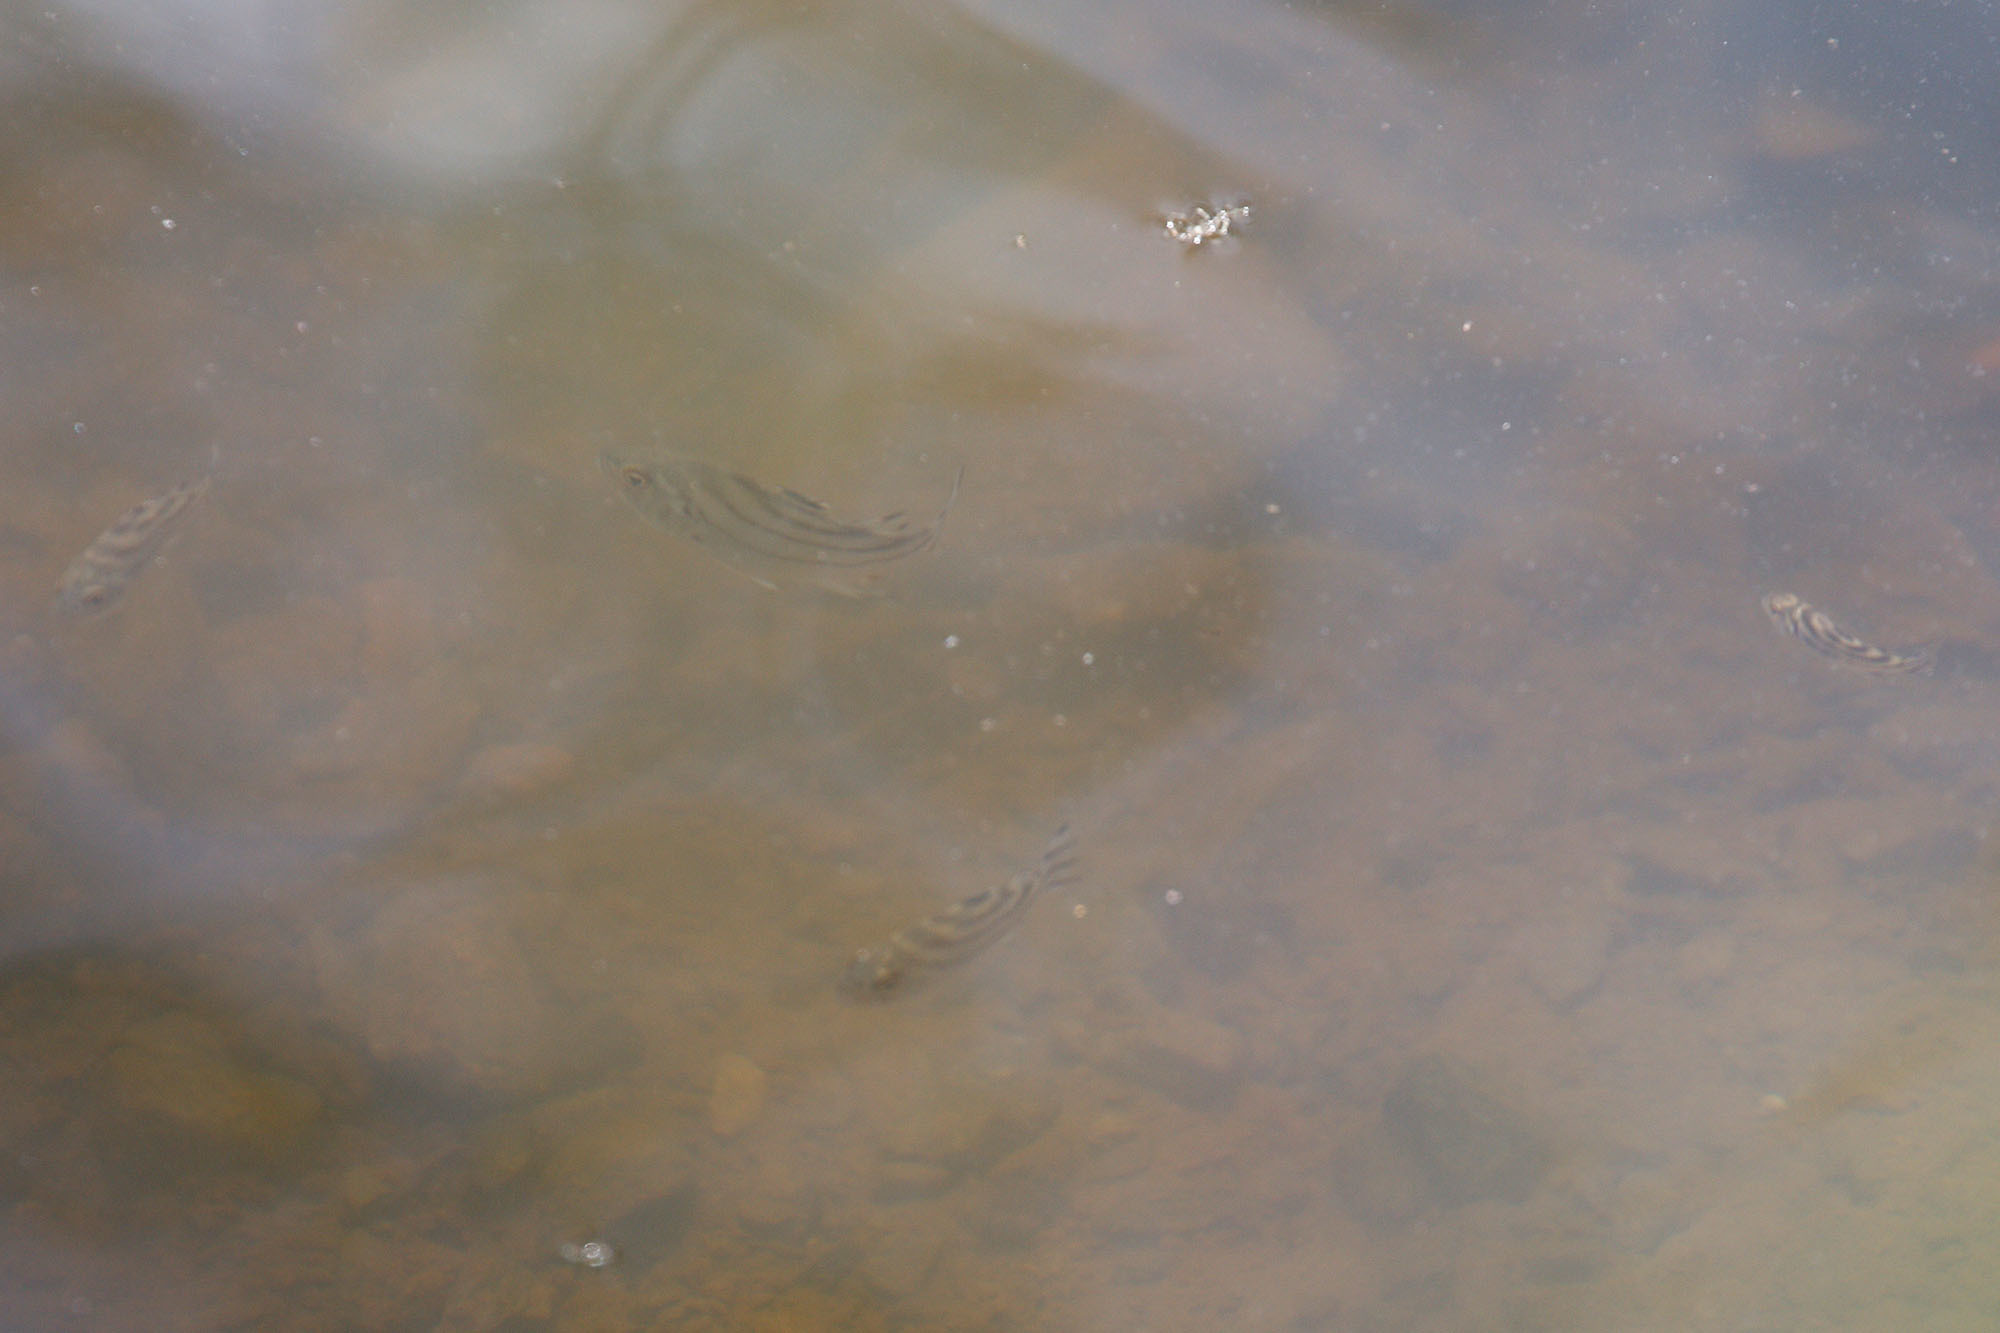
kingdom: Animalia
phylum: Chordata
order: Perciformes
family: Terapontidae
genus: Terapon
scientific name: Terapon jarbua
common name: Jarbua terapon
